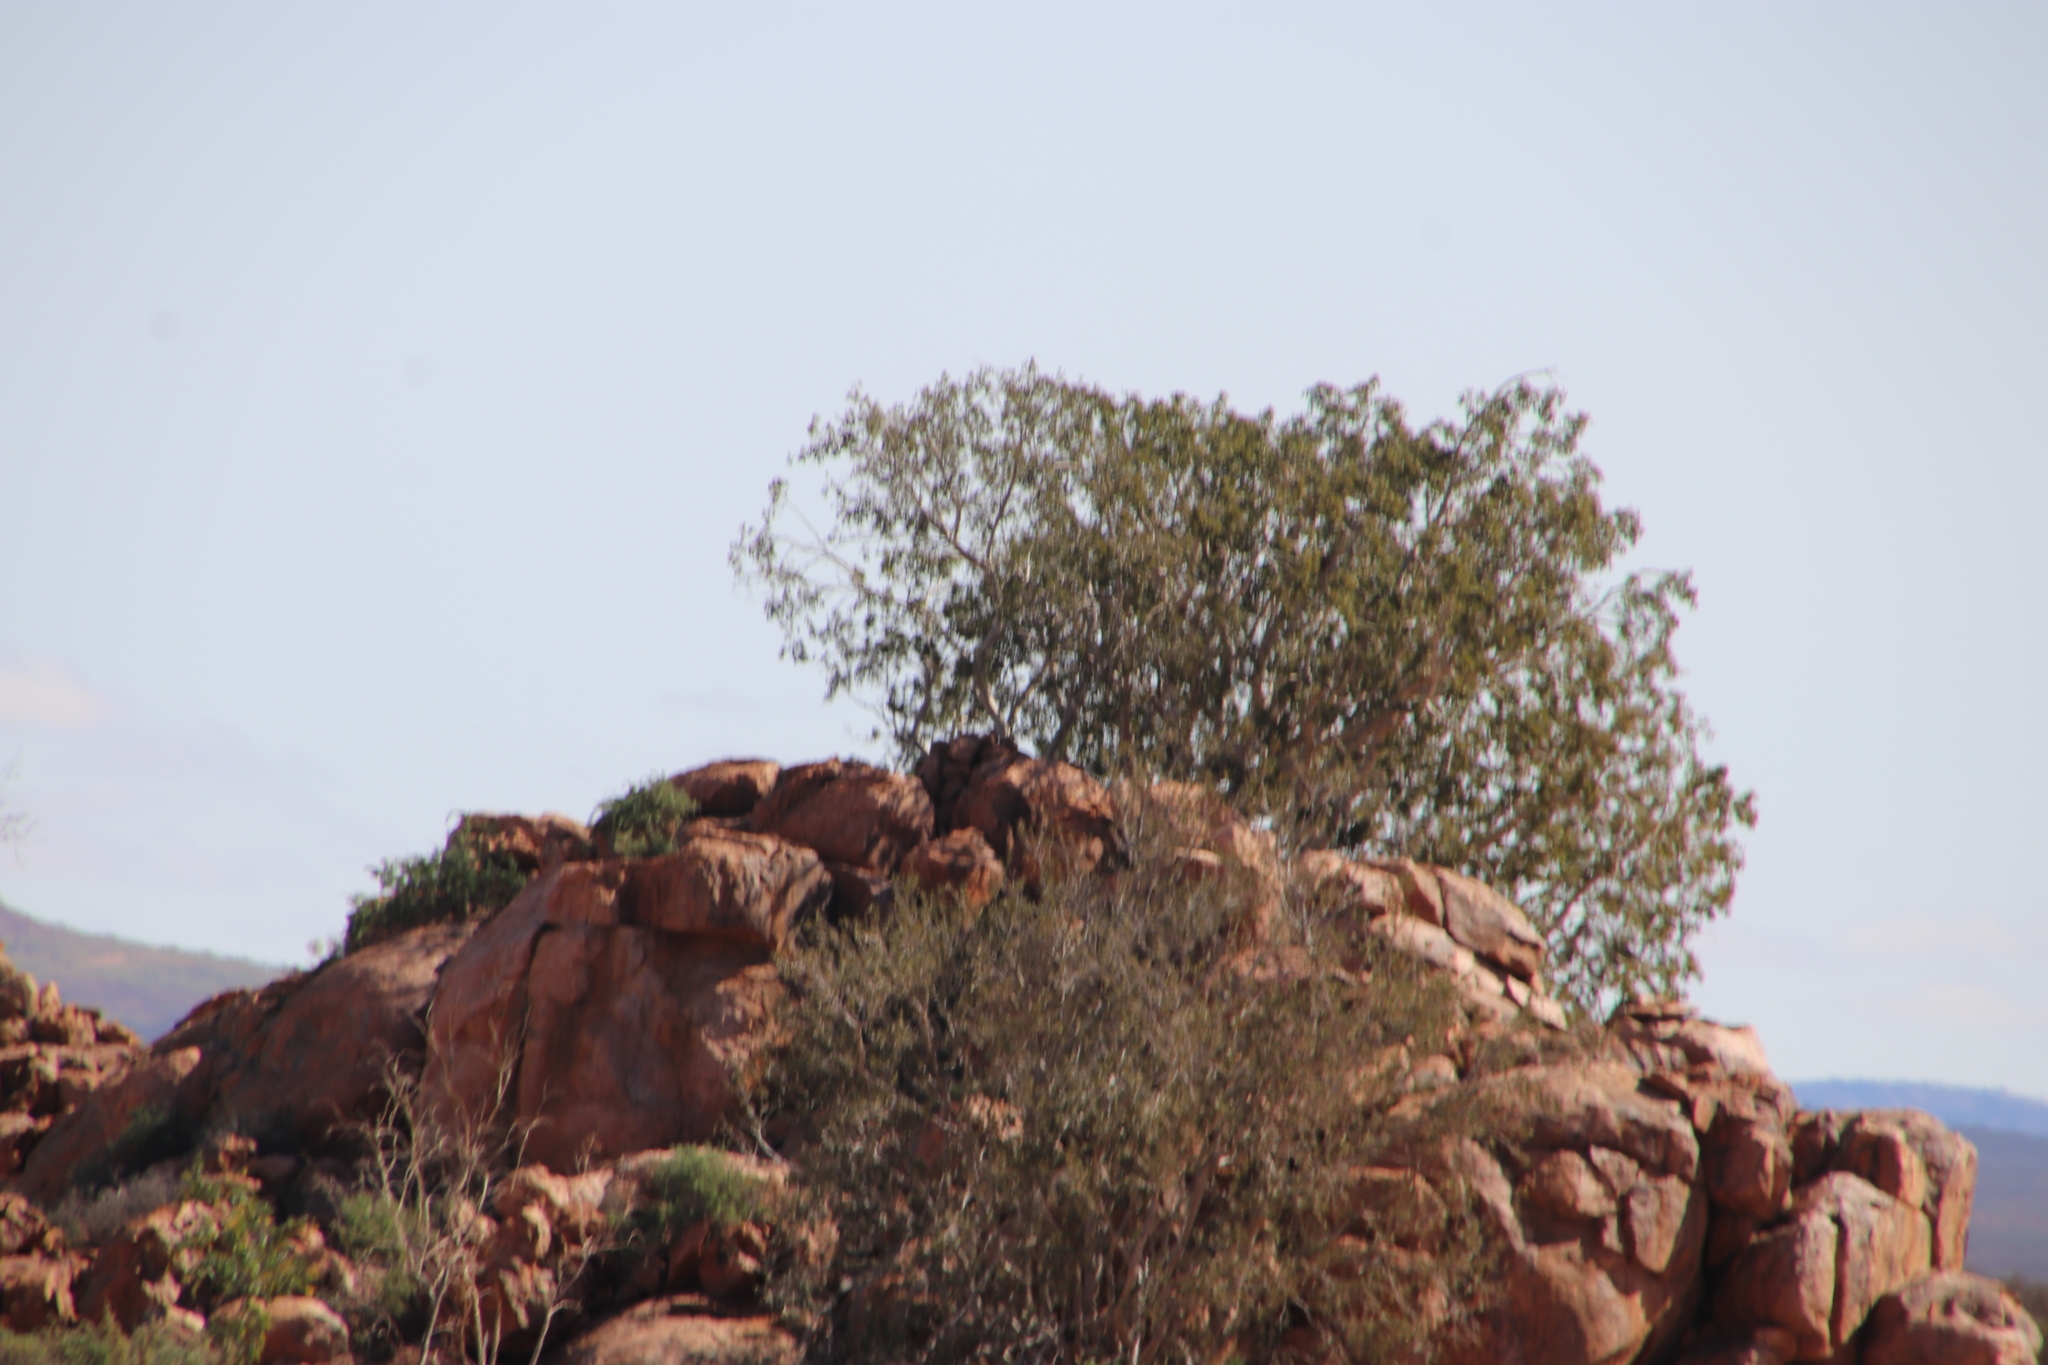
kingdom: Plantae
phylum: Tracheophyta
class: Magnoliopsida
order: Rosales
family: Moraceae
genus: Ficus
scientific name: Ficus cordata
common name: Namaqua rock fig
